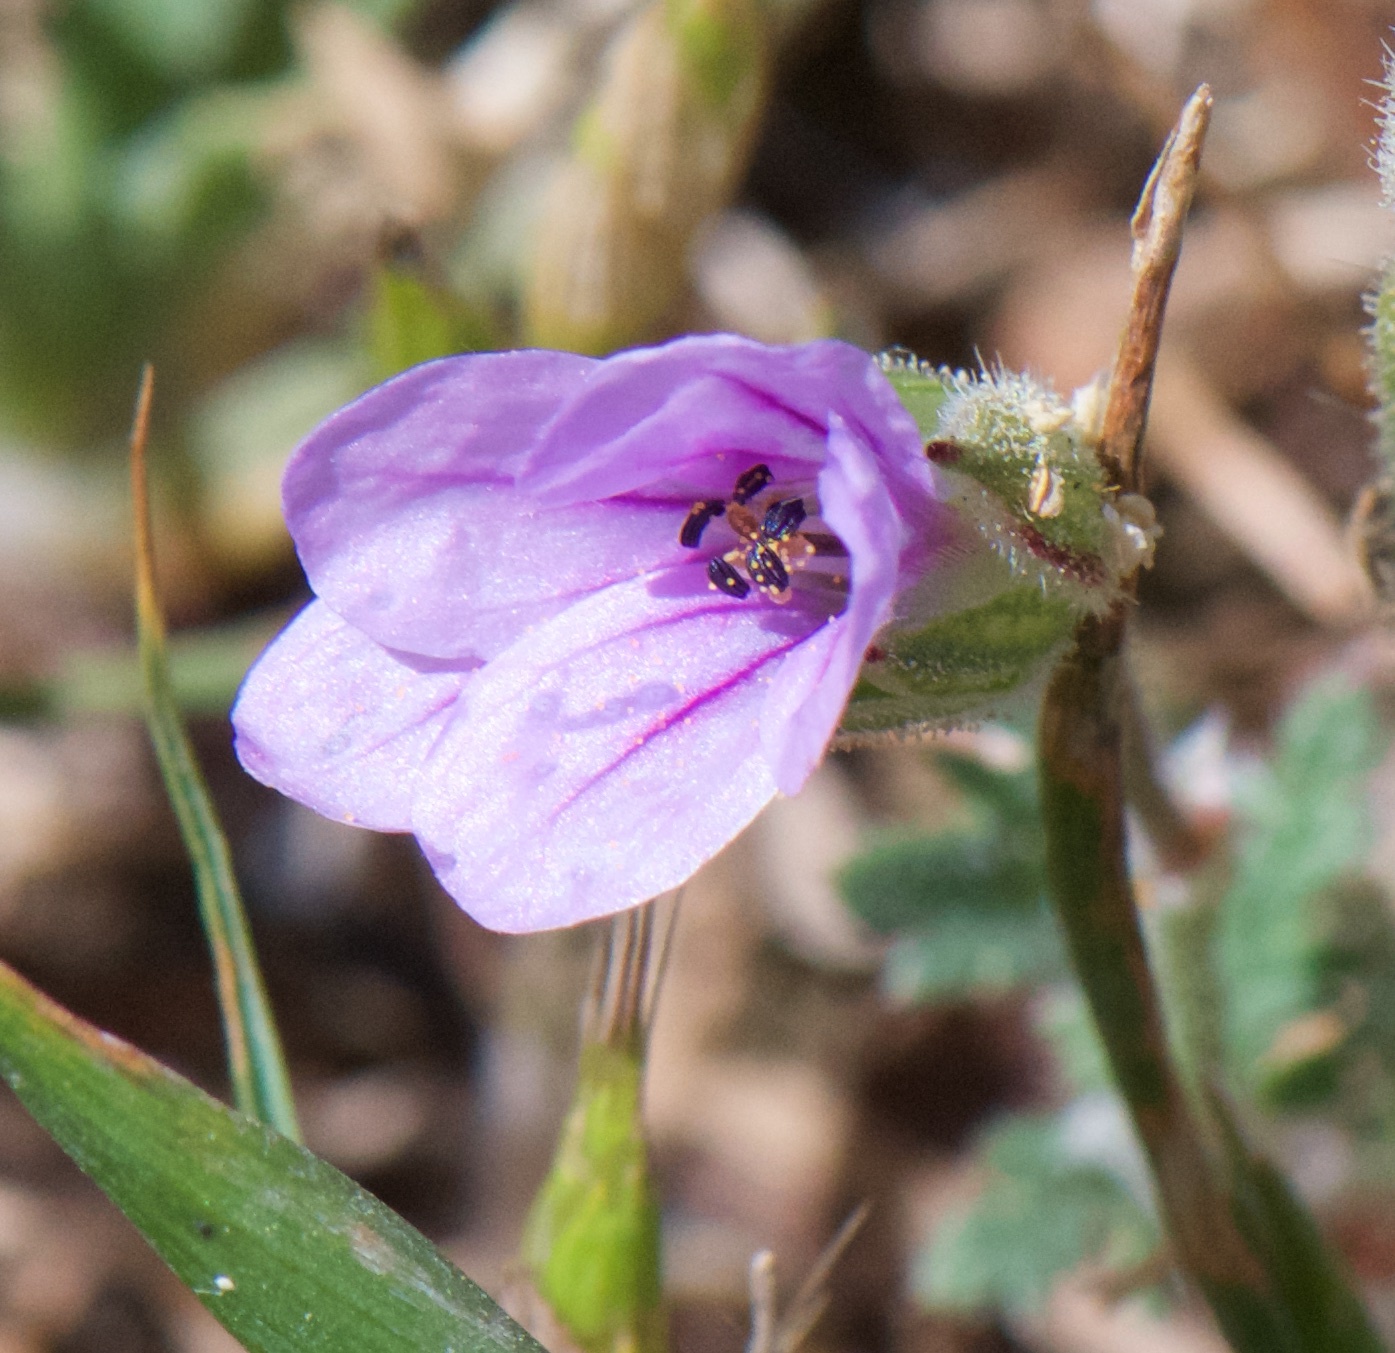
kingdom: Plantae
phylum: Tracheophyta
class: Magnoliopsida
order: Geraniales
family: Geraniaceae
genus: Erodium
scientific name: Erodium botrys
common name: Mediterranean stork's-bill
